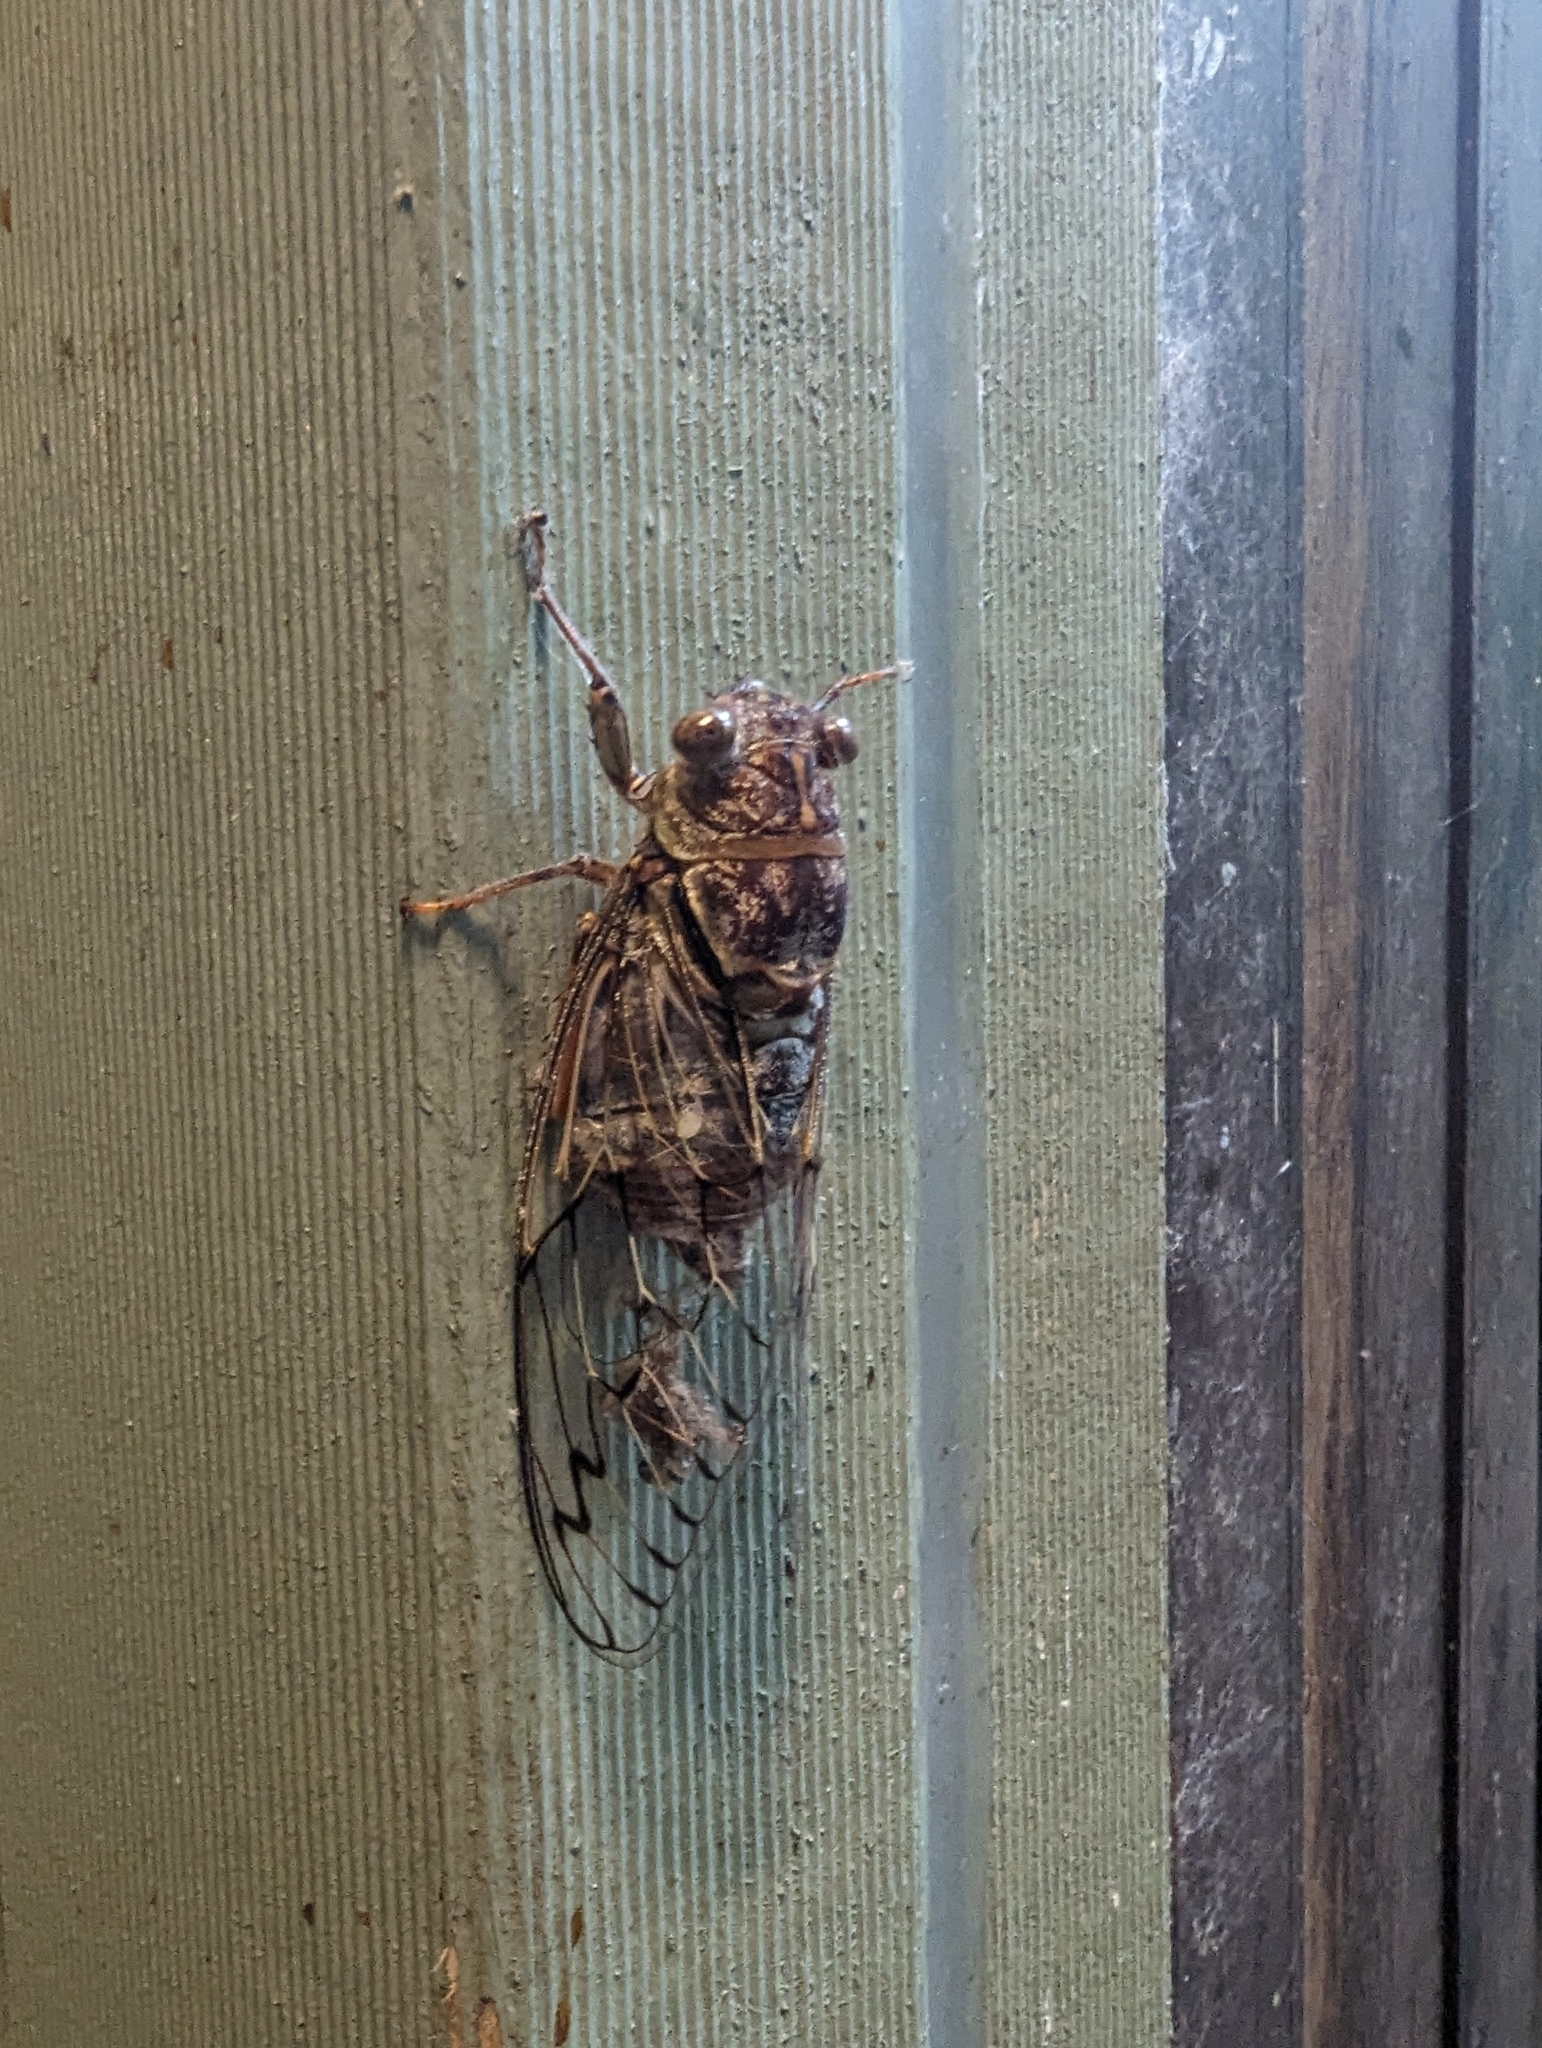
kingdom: Animalia
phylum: Arthropoda
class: Insecta
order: Hemiptera
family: Cicadidae
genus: Henicopsaltria
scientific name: Henicopsaltria eydouxii
